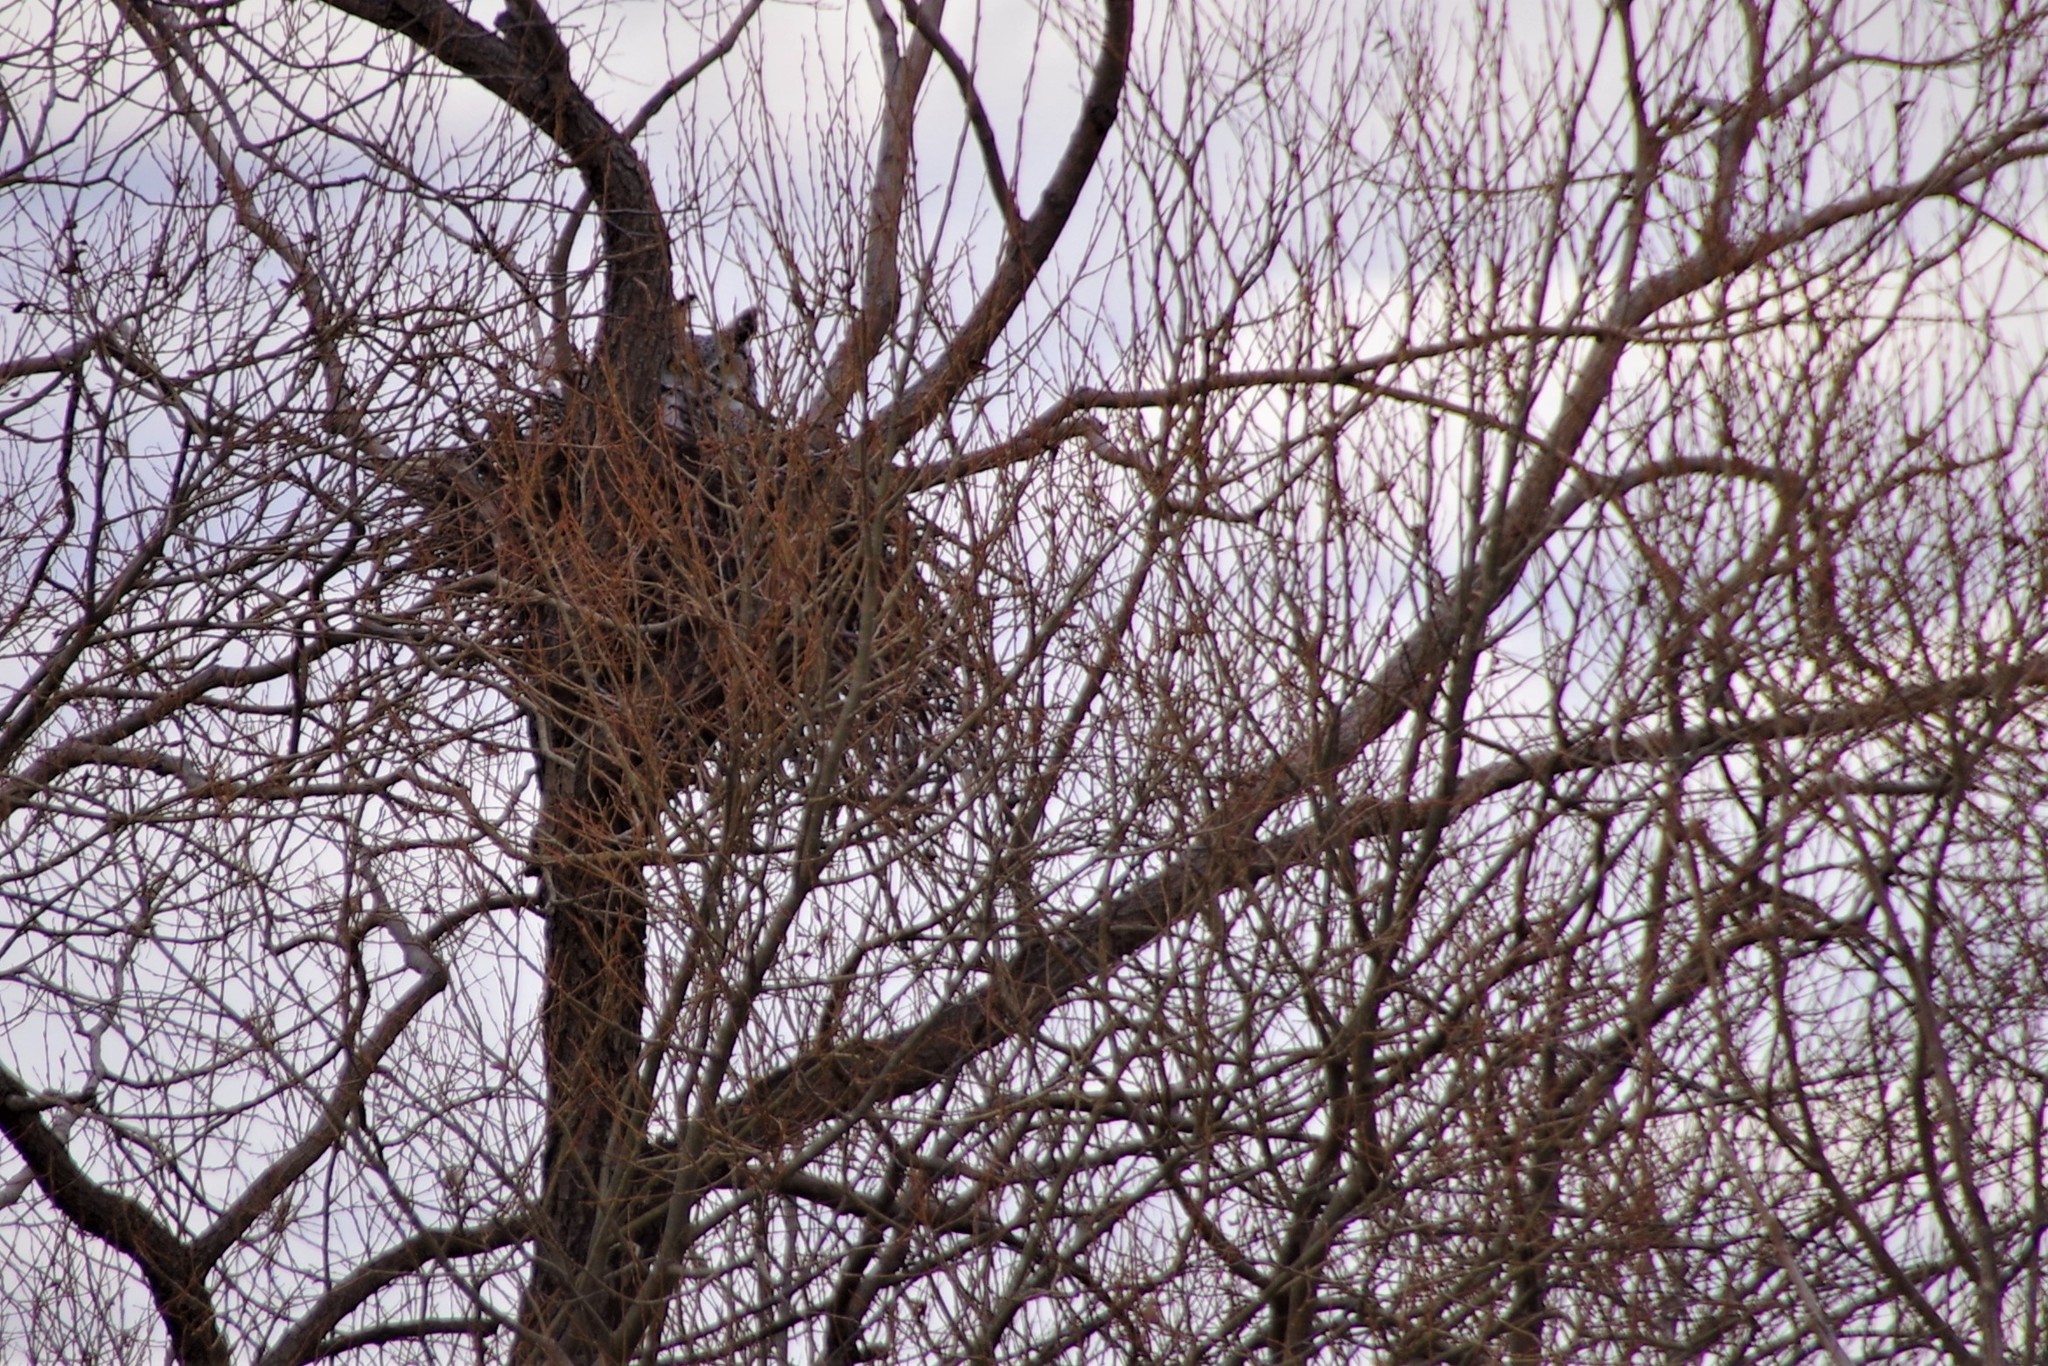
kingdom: Animalia
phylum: Chordata
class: Aves
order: Strigiformes
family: Strigidae
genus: Bubo
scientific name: Bubo virginianus
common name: Great horned owl
